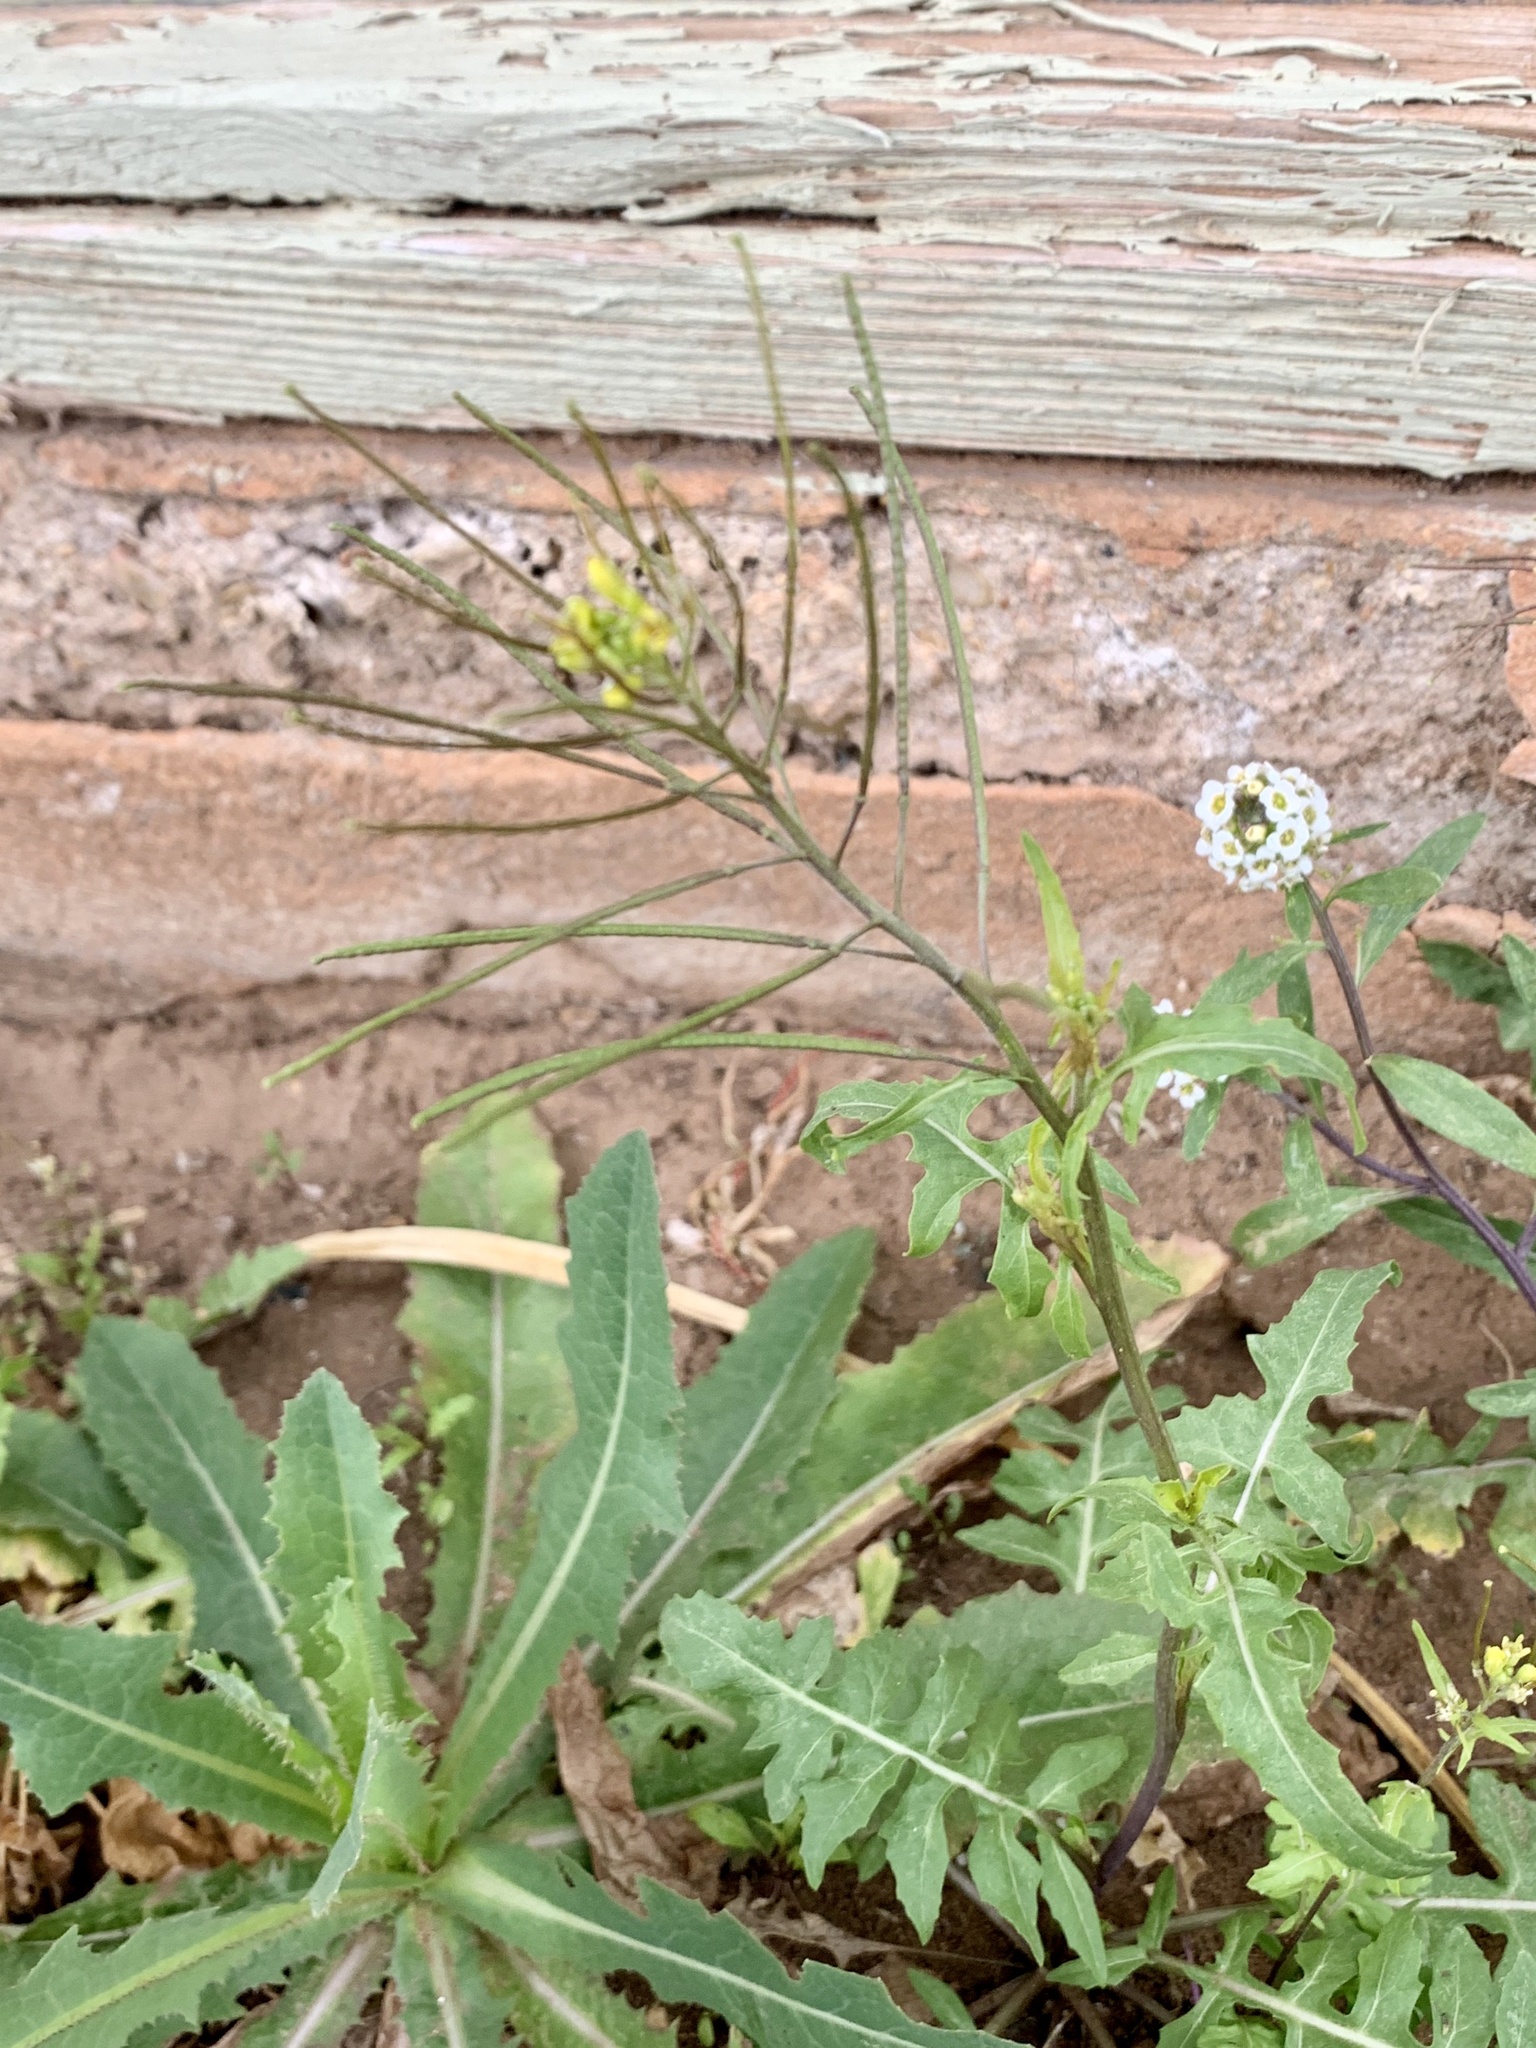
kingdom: Plantae
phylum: Tracheophyta
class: Magnoliopsida
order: Brassicales
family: Brassicaceae
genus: Sisymbrium
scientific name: Sisymbrium irio
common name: London rocket
